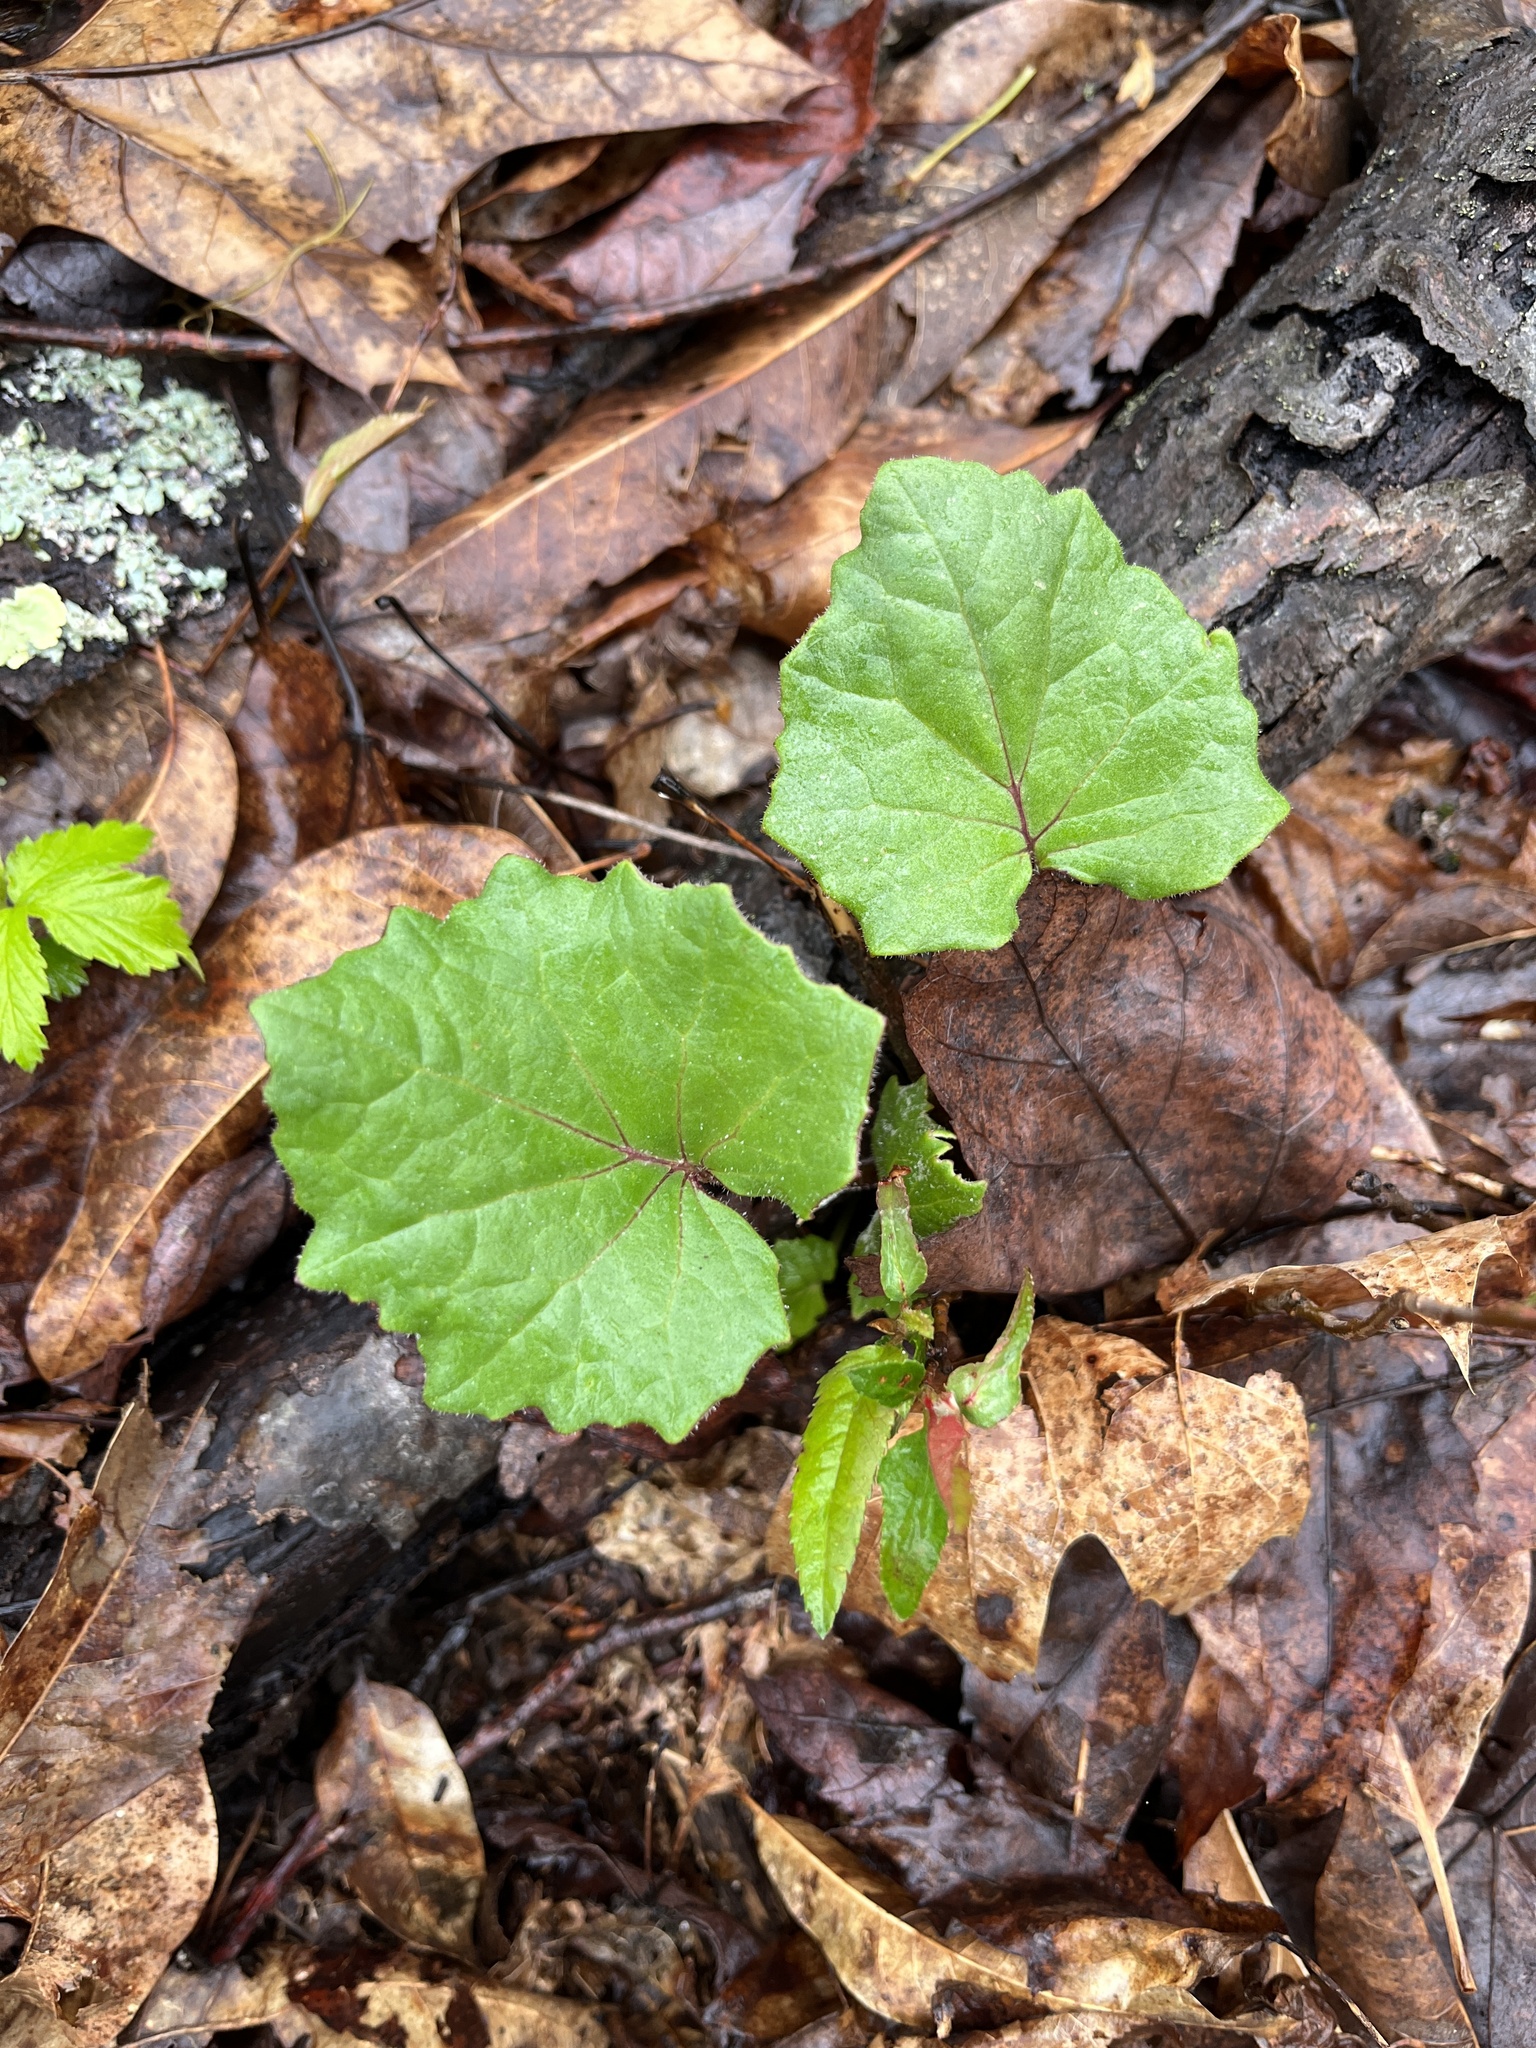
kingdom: Plantae
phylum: Tracheophyta
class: Magnoliopsida
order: Asterales
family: Asteraceae
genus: Tussilago
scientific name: Tussilago farfara
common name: Coltsfoot
